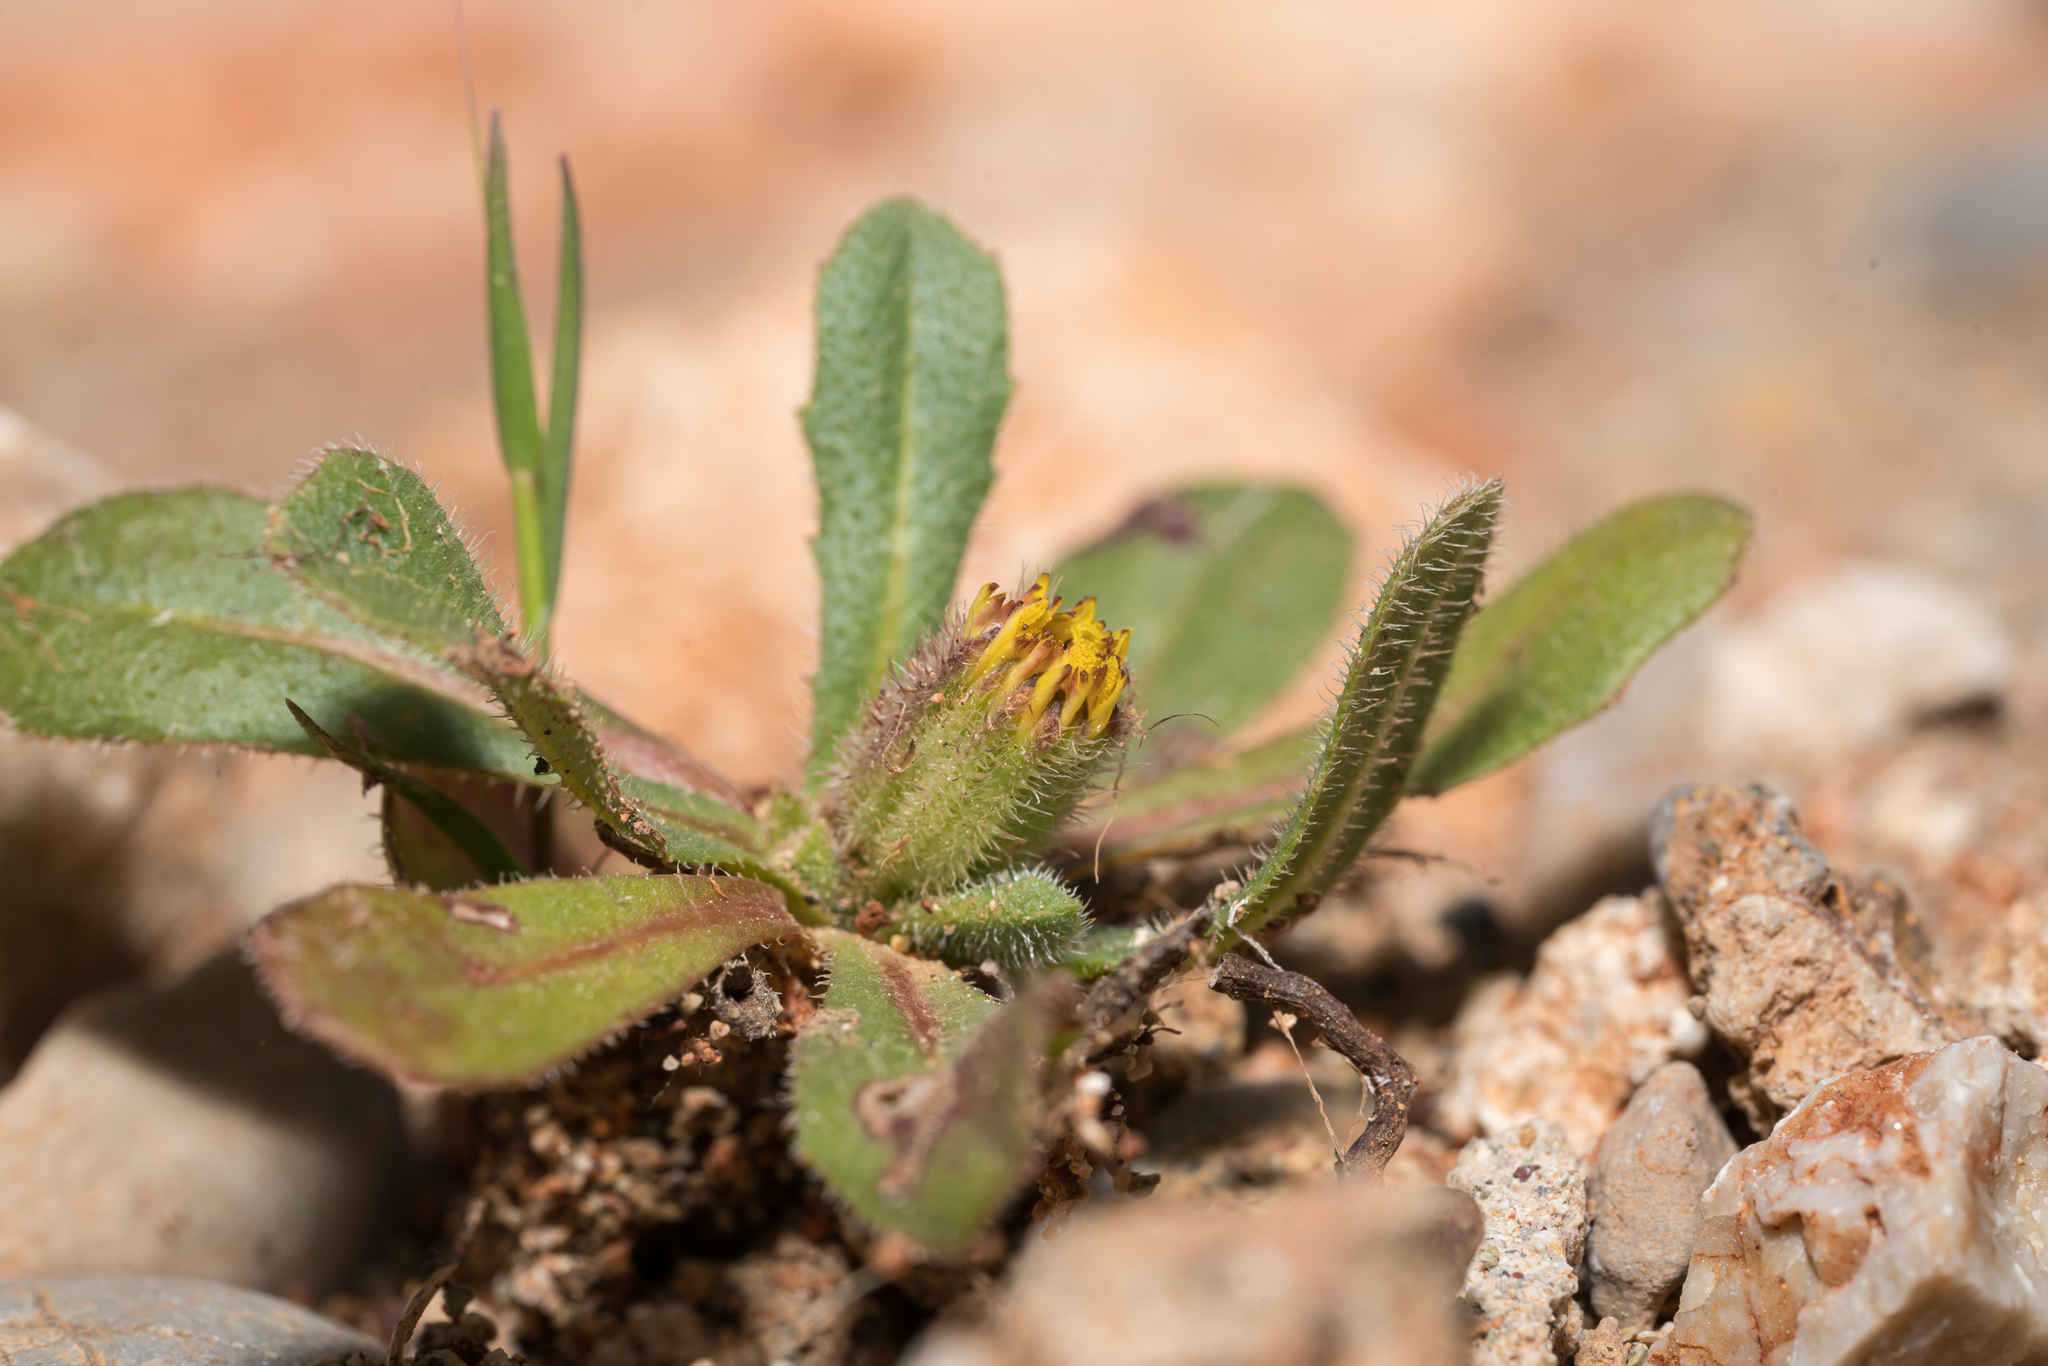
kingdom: Plantae
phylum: Tracheophyta
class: Magnoliopsida
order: Asterales
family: Asteraceae
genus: Hedypnois
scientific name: Hedypnois rhagadioloides
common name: Cretan weed
